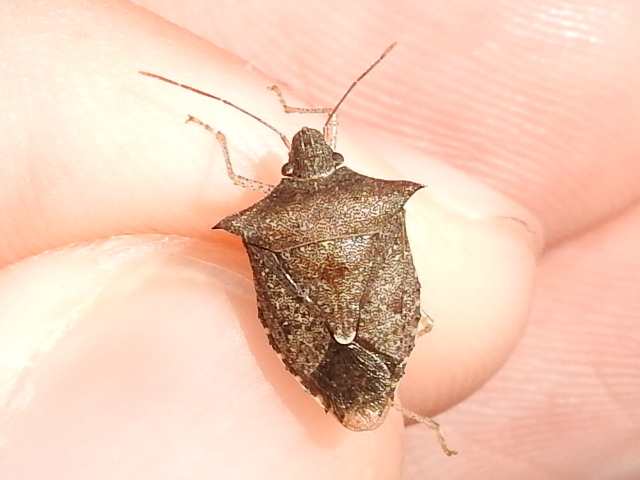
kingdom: Animalia
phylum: Arthropoda
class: Insecta
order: Hemiptera
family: Pentatomidae
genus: Euschistus
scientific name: Euschistus tristigmus
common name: Dusky stink bug
